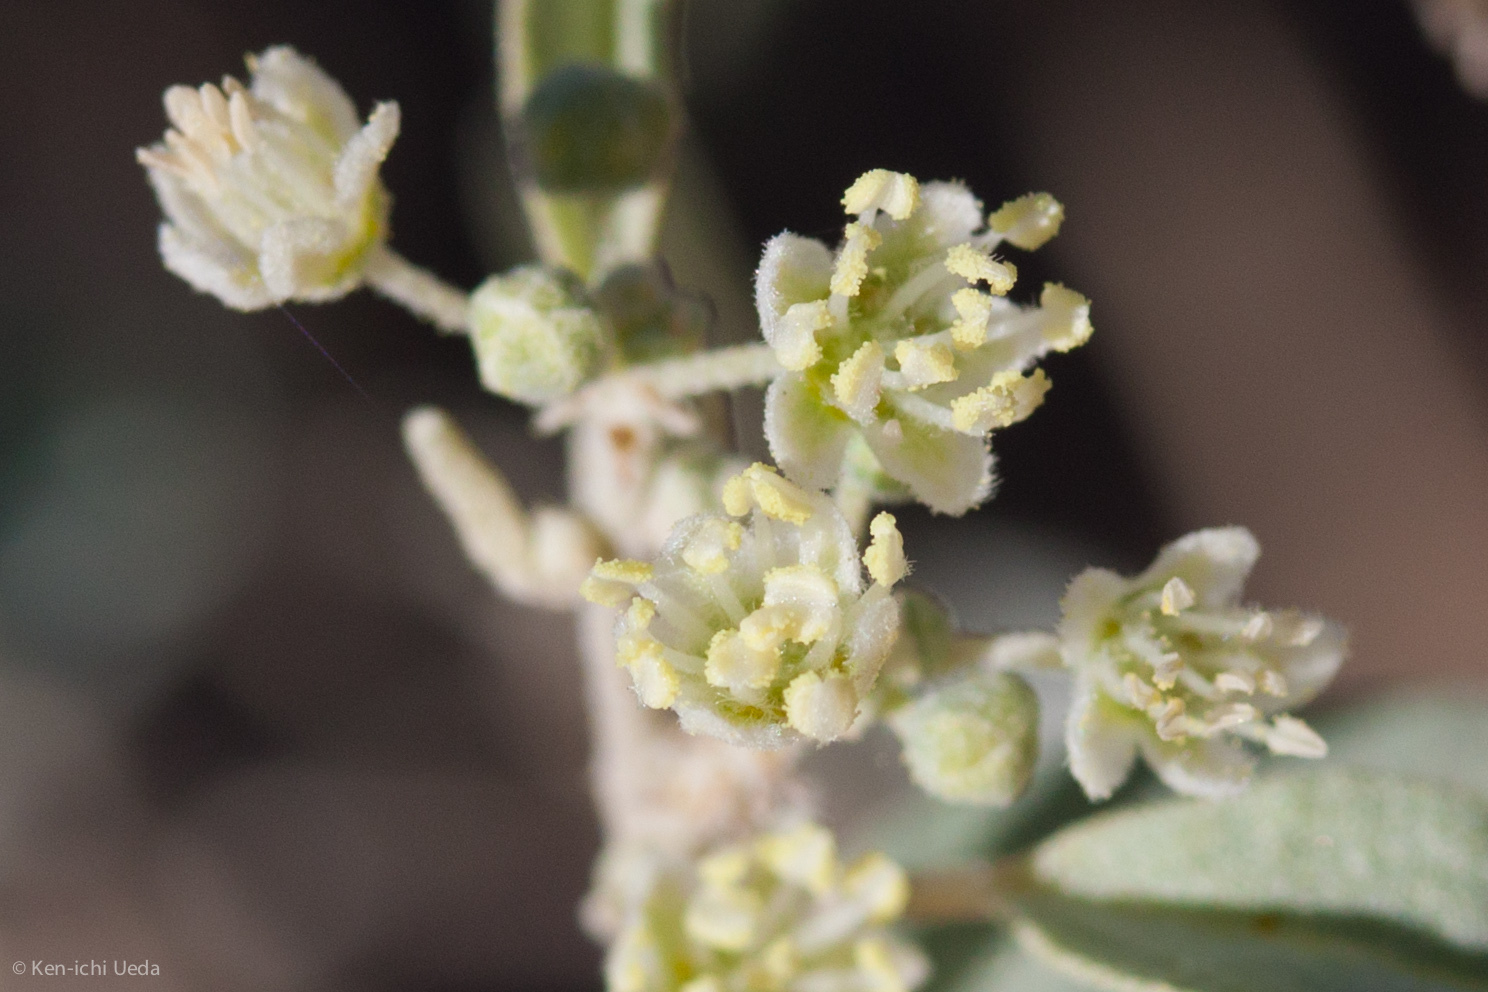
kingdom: Plantae
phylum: Tracheophyta
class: Magnoliopsida
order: Malpighiales
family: Euphorbiaceae
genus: Croton
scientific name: Croton californicus
